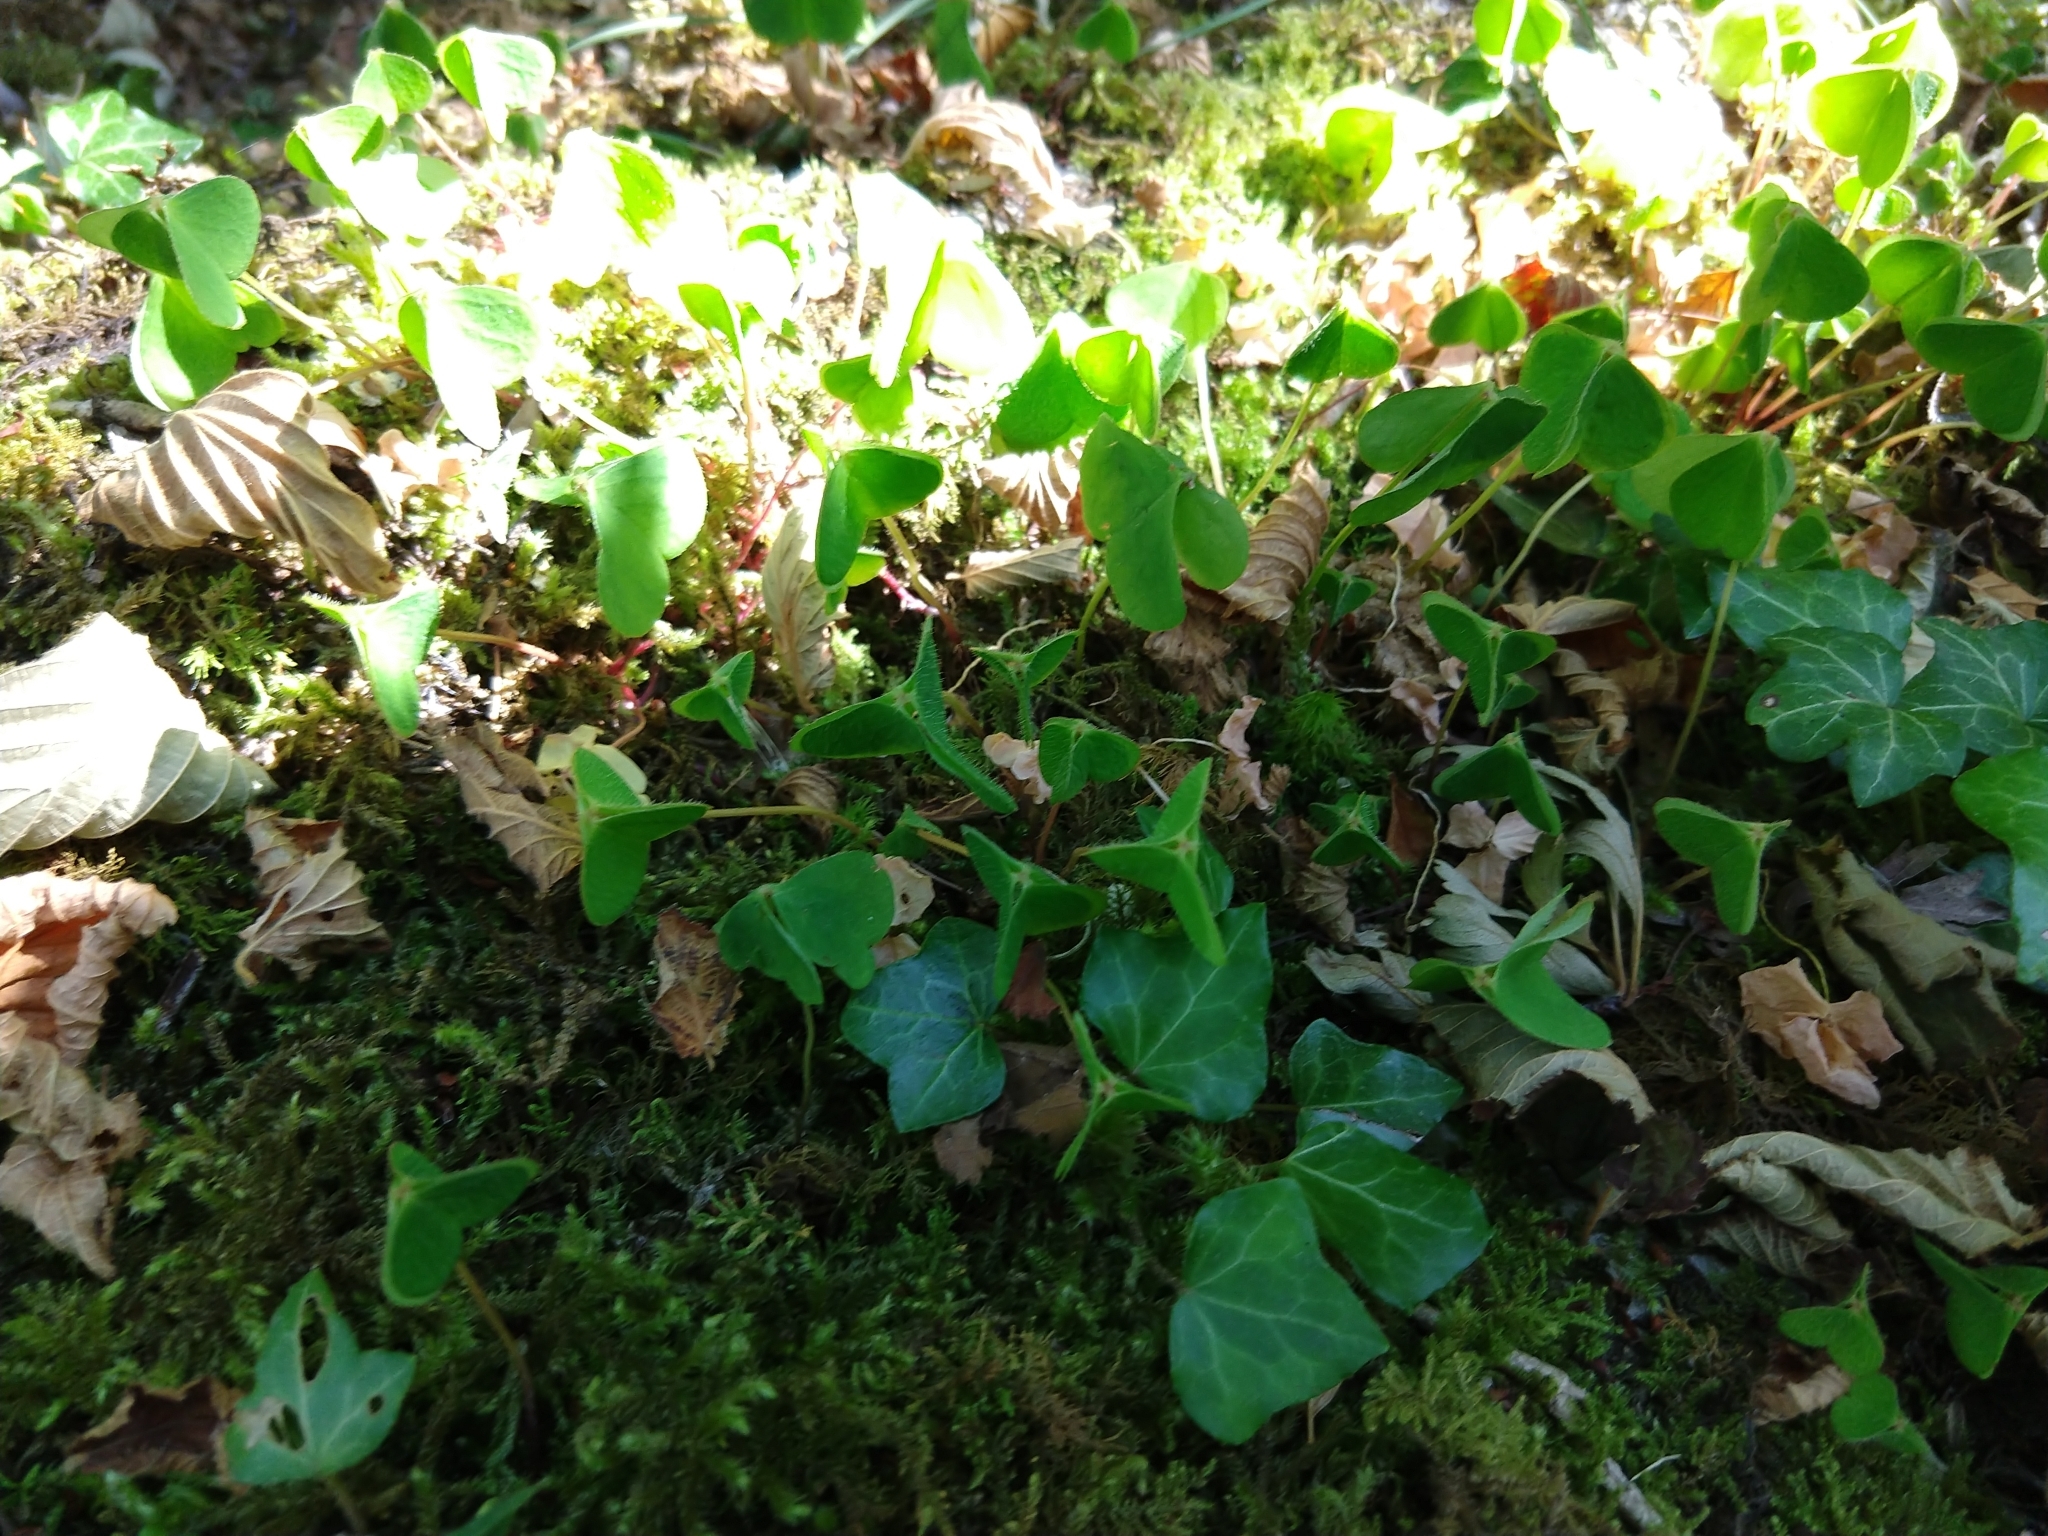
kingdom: Plantae
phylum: Tracheophyta
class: Magnoliopsida
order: Oxalidales
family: Oxalidaceae
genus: Oxalis
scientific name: Oxalis acetosella
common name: Wood-sorrel
